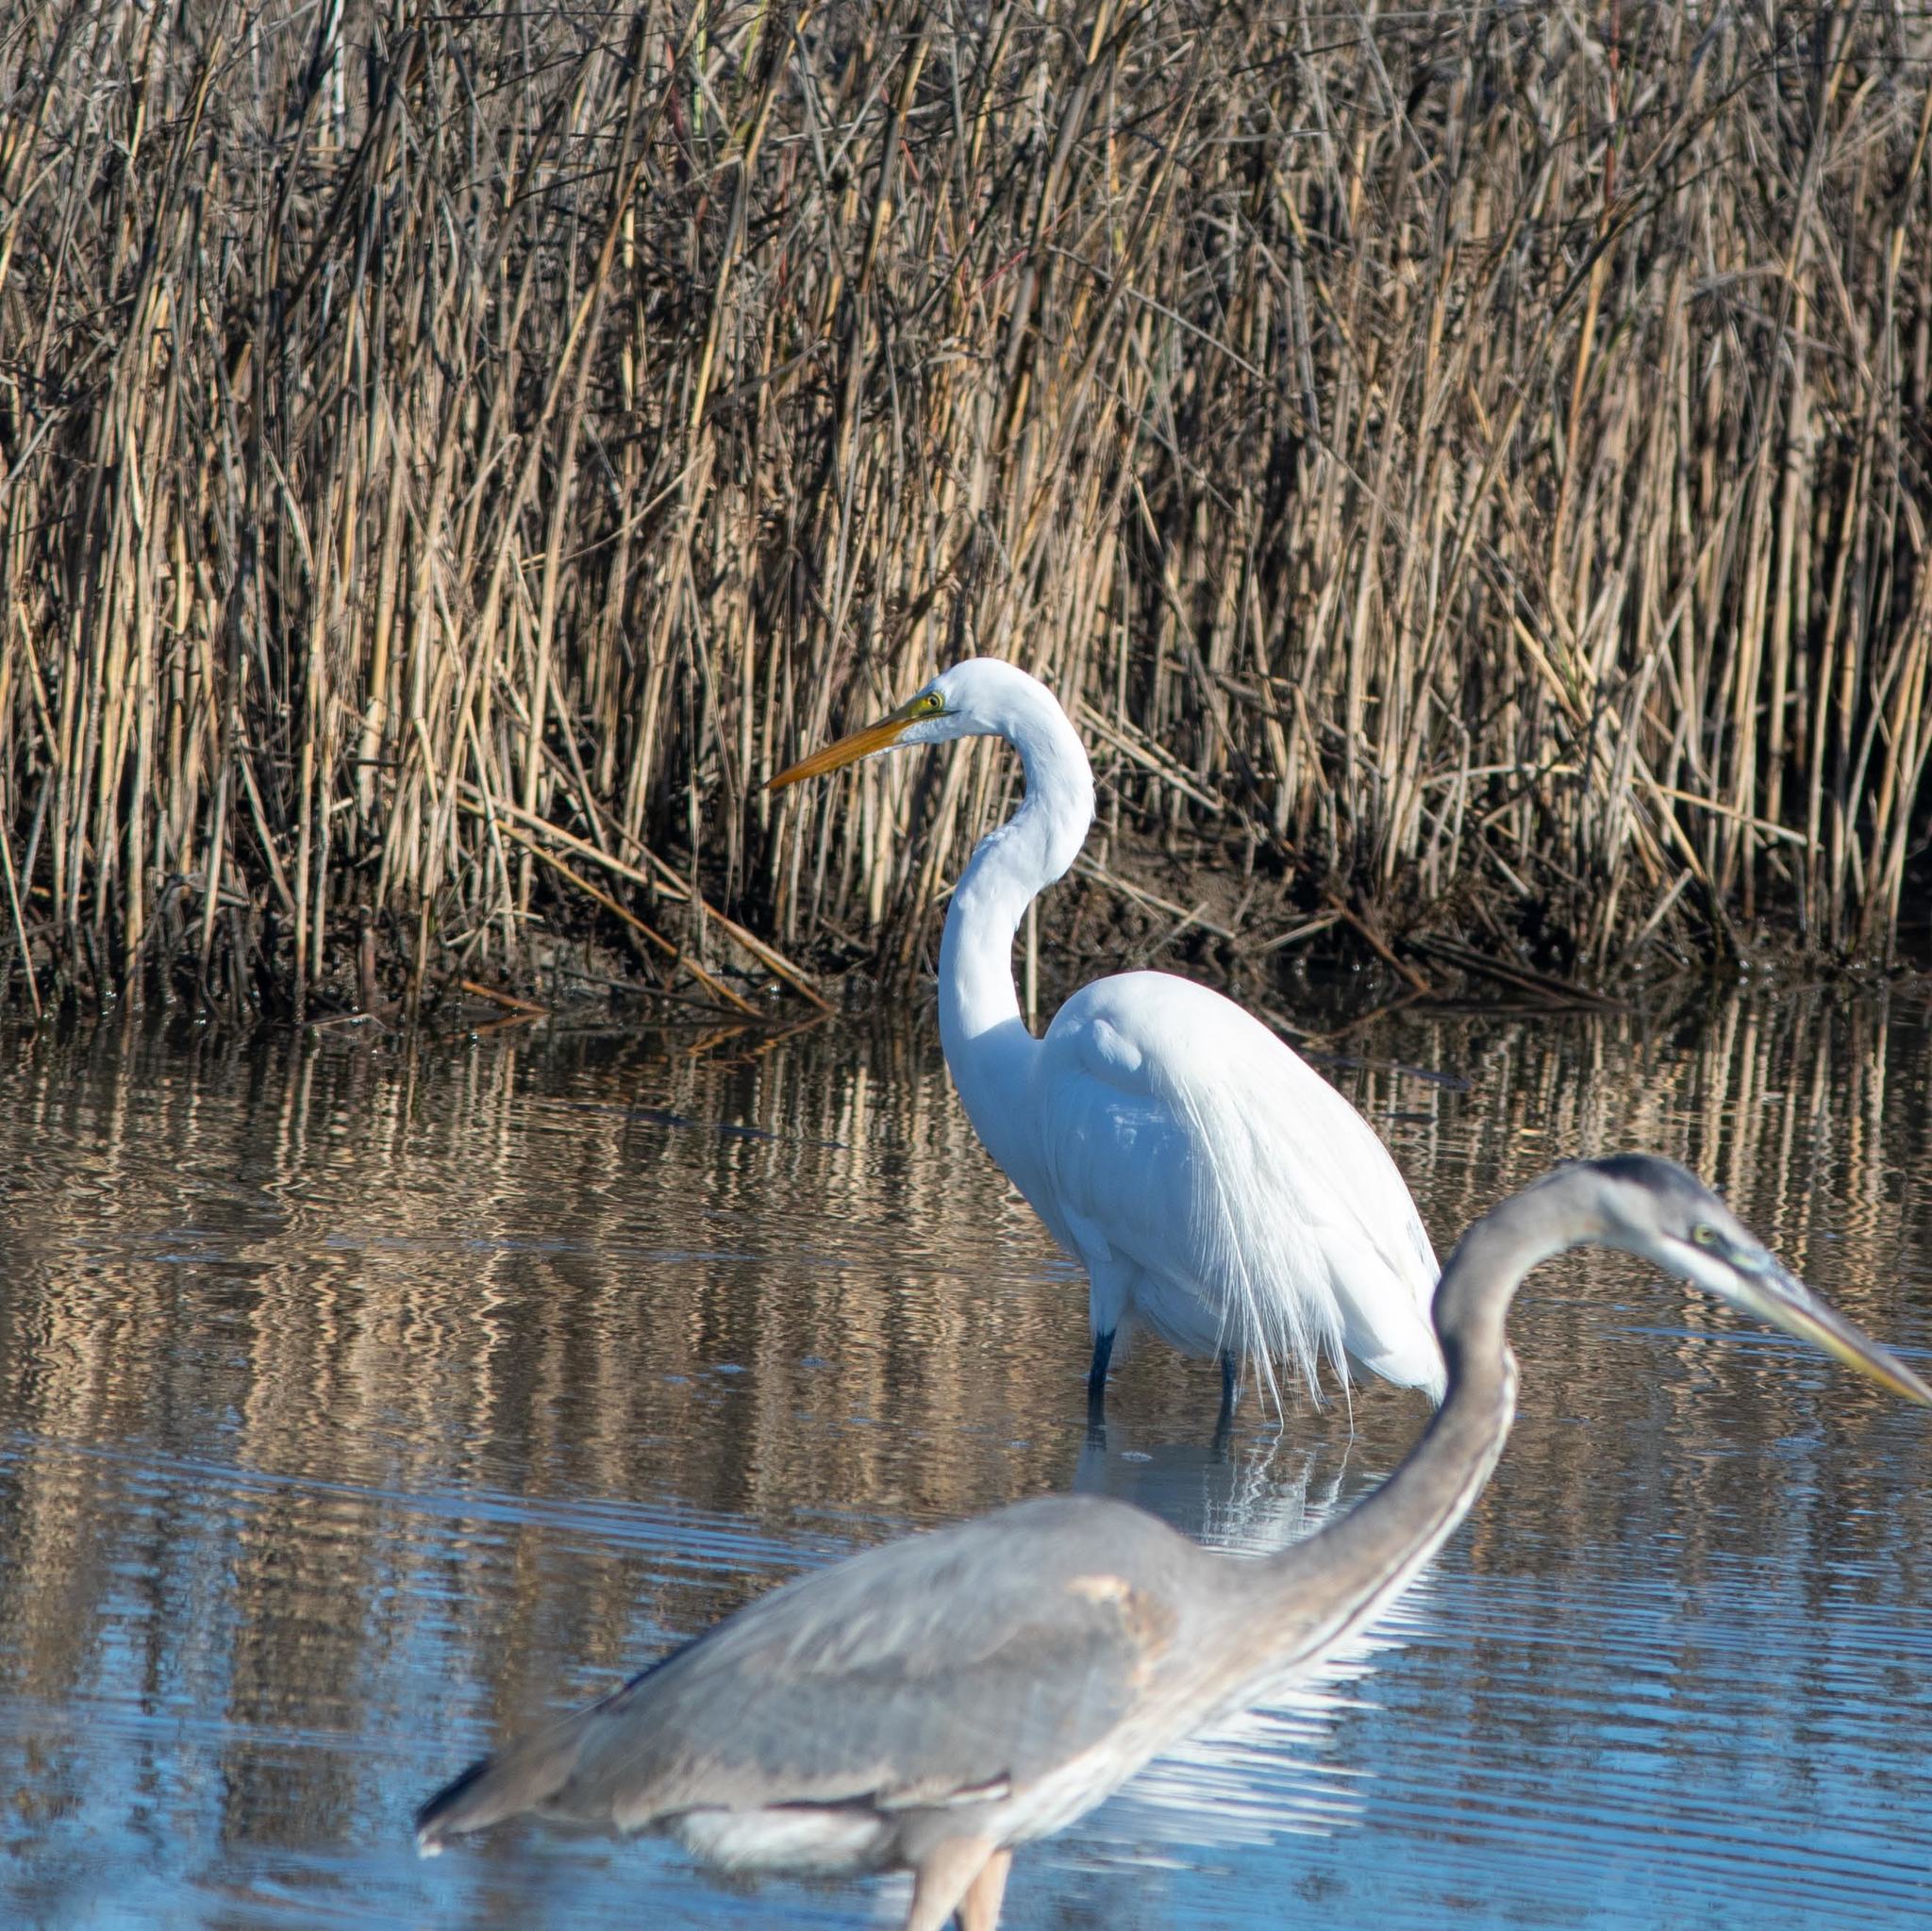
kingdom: Animalia
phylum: Chordata
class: Aves
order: Pelecaniformes
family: Ardeidae
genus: Ardea
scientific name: Ardea alba
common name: Great egret
